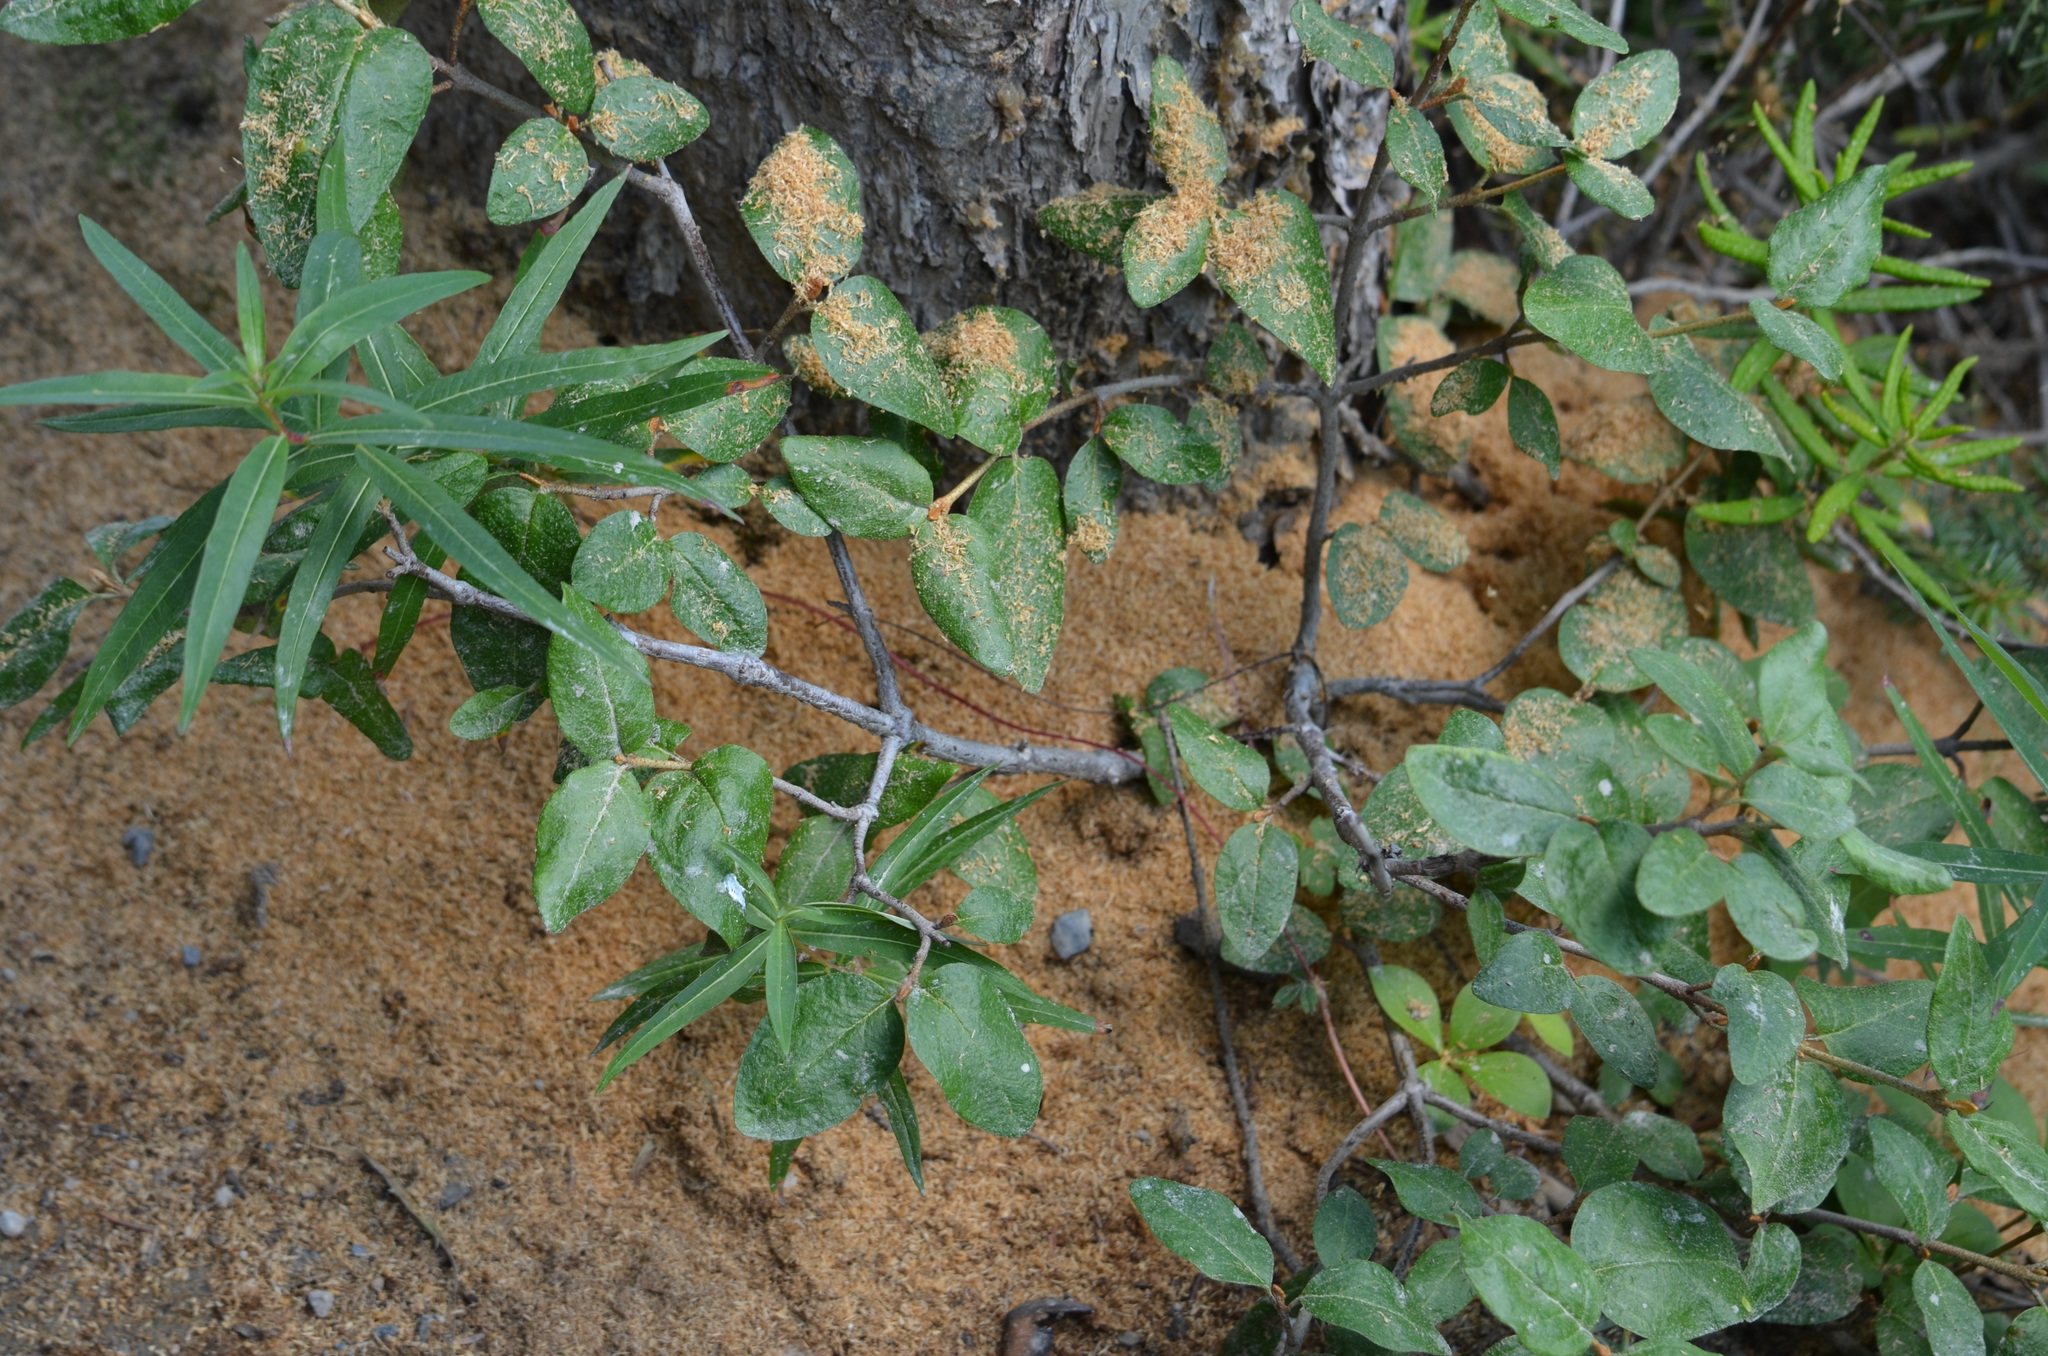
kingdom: Plantae
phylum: Tracheophyta
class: Magnoliopsida
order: Myrtales
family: Onagraceae
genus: Chamaenerion
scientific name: Chamaenerion angustifolium
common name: Fireweed
